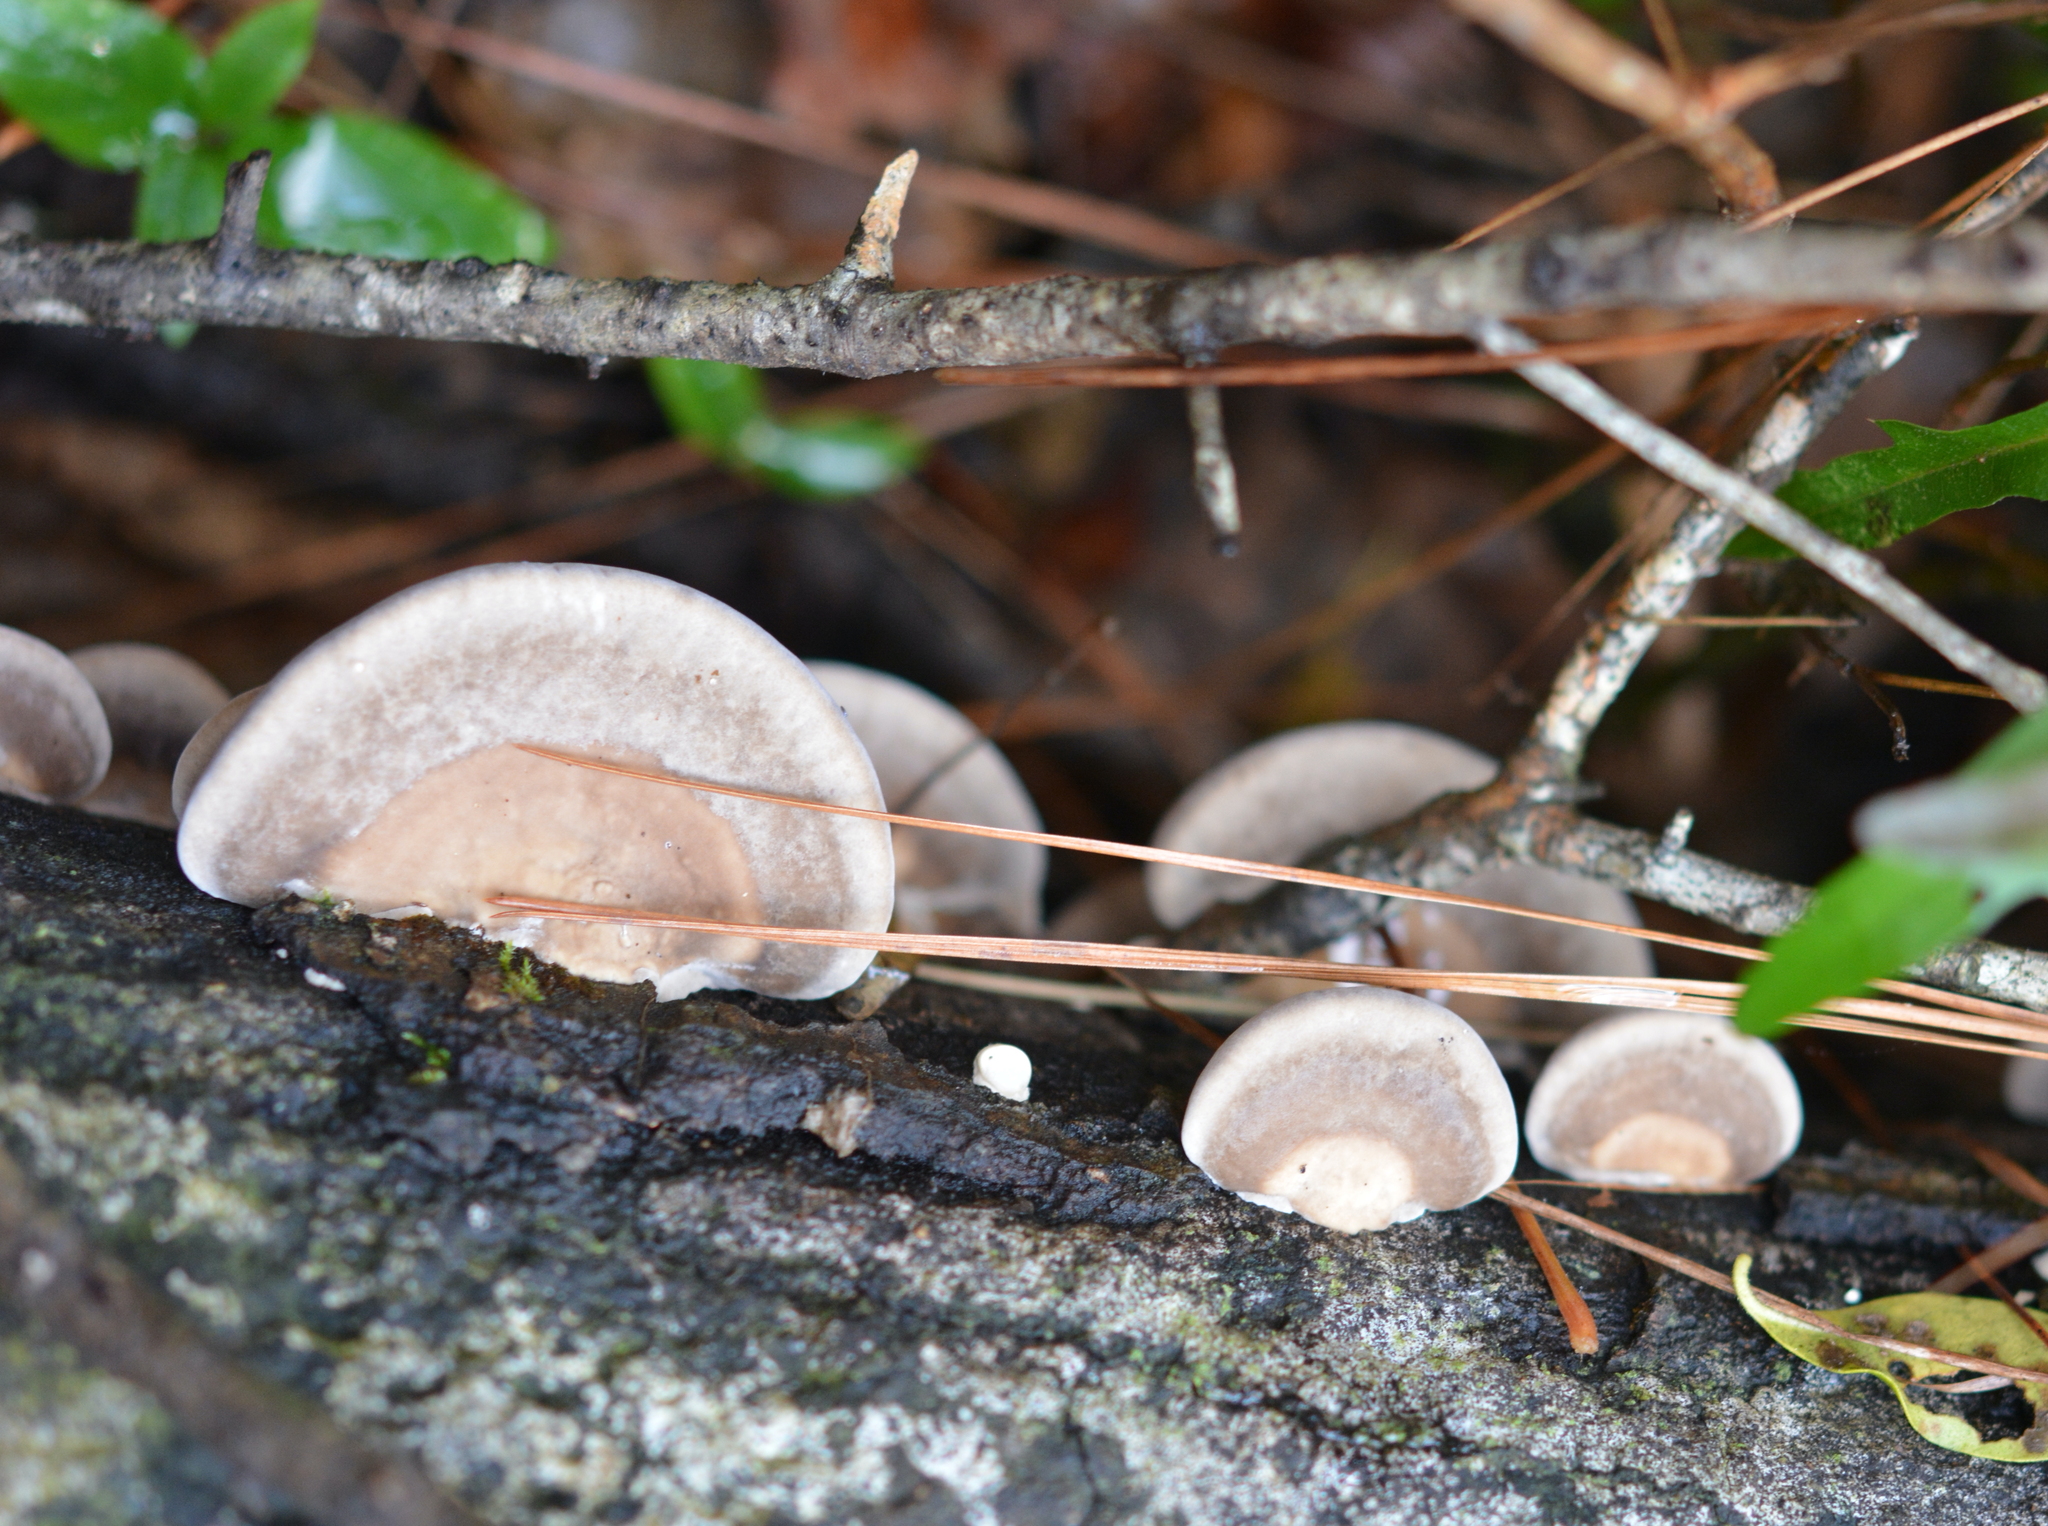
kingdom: Fungi
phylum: Basidiomycota
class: Agaricomycetes
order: Polyporales
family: Polyporaceae
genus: Trametes
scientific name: Trametes lactinea
